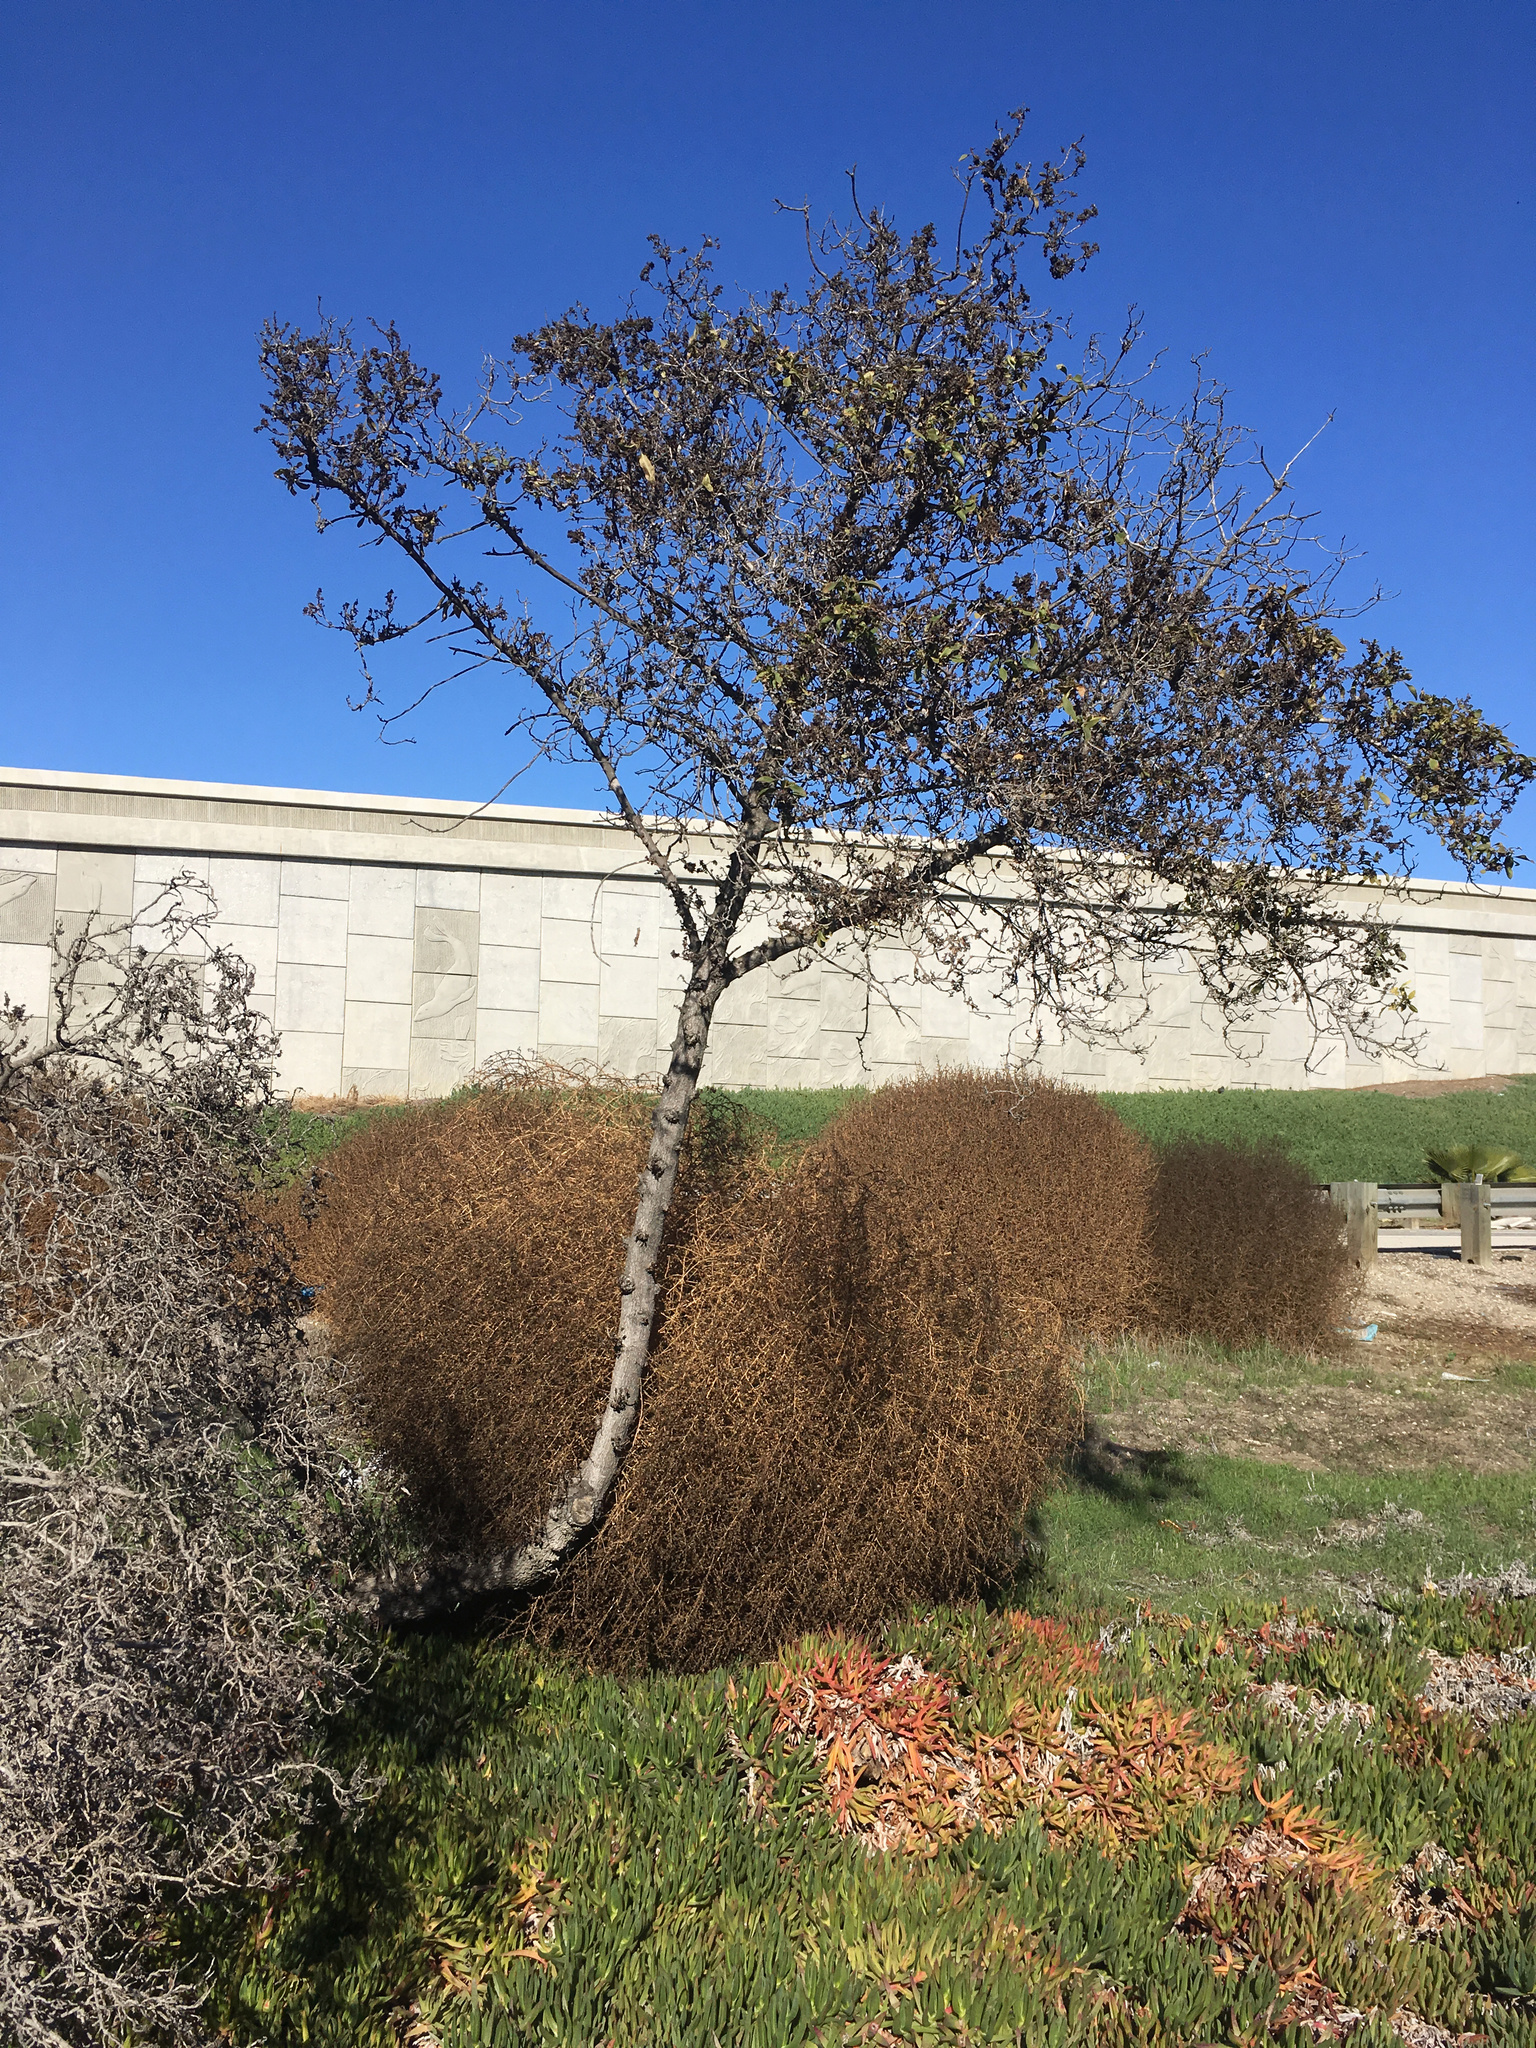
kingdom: Plantae
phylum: Tracheophyta
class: Magnoliopsida
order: Lamiales
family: Scrophulariaceae
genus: Myoporum
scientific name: Myoporum laetum
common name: Ngaio tree
